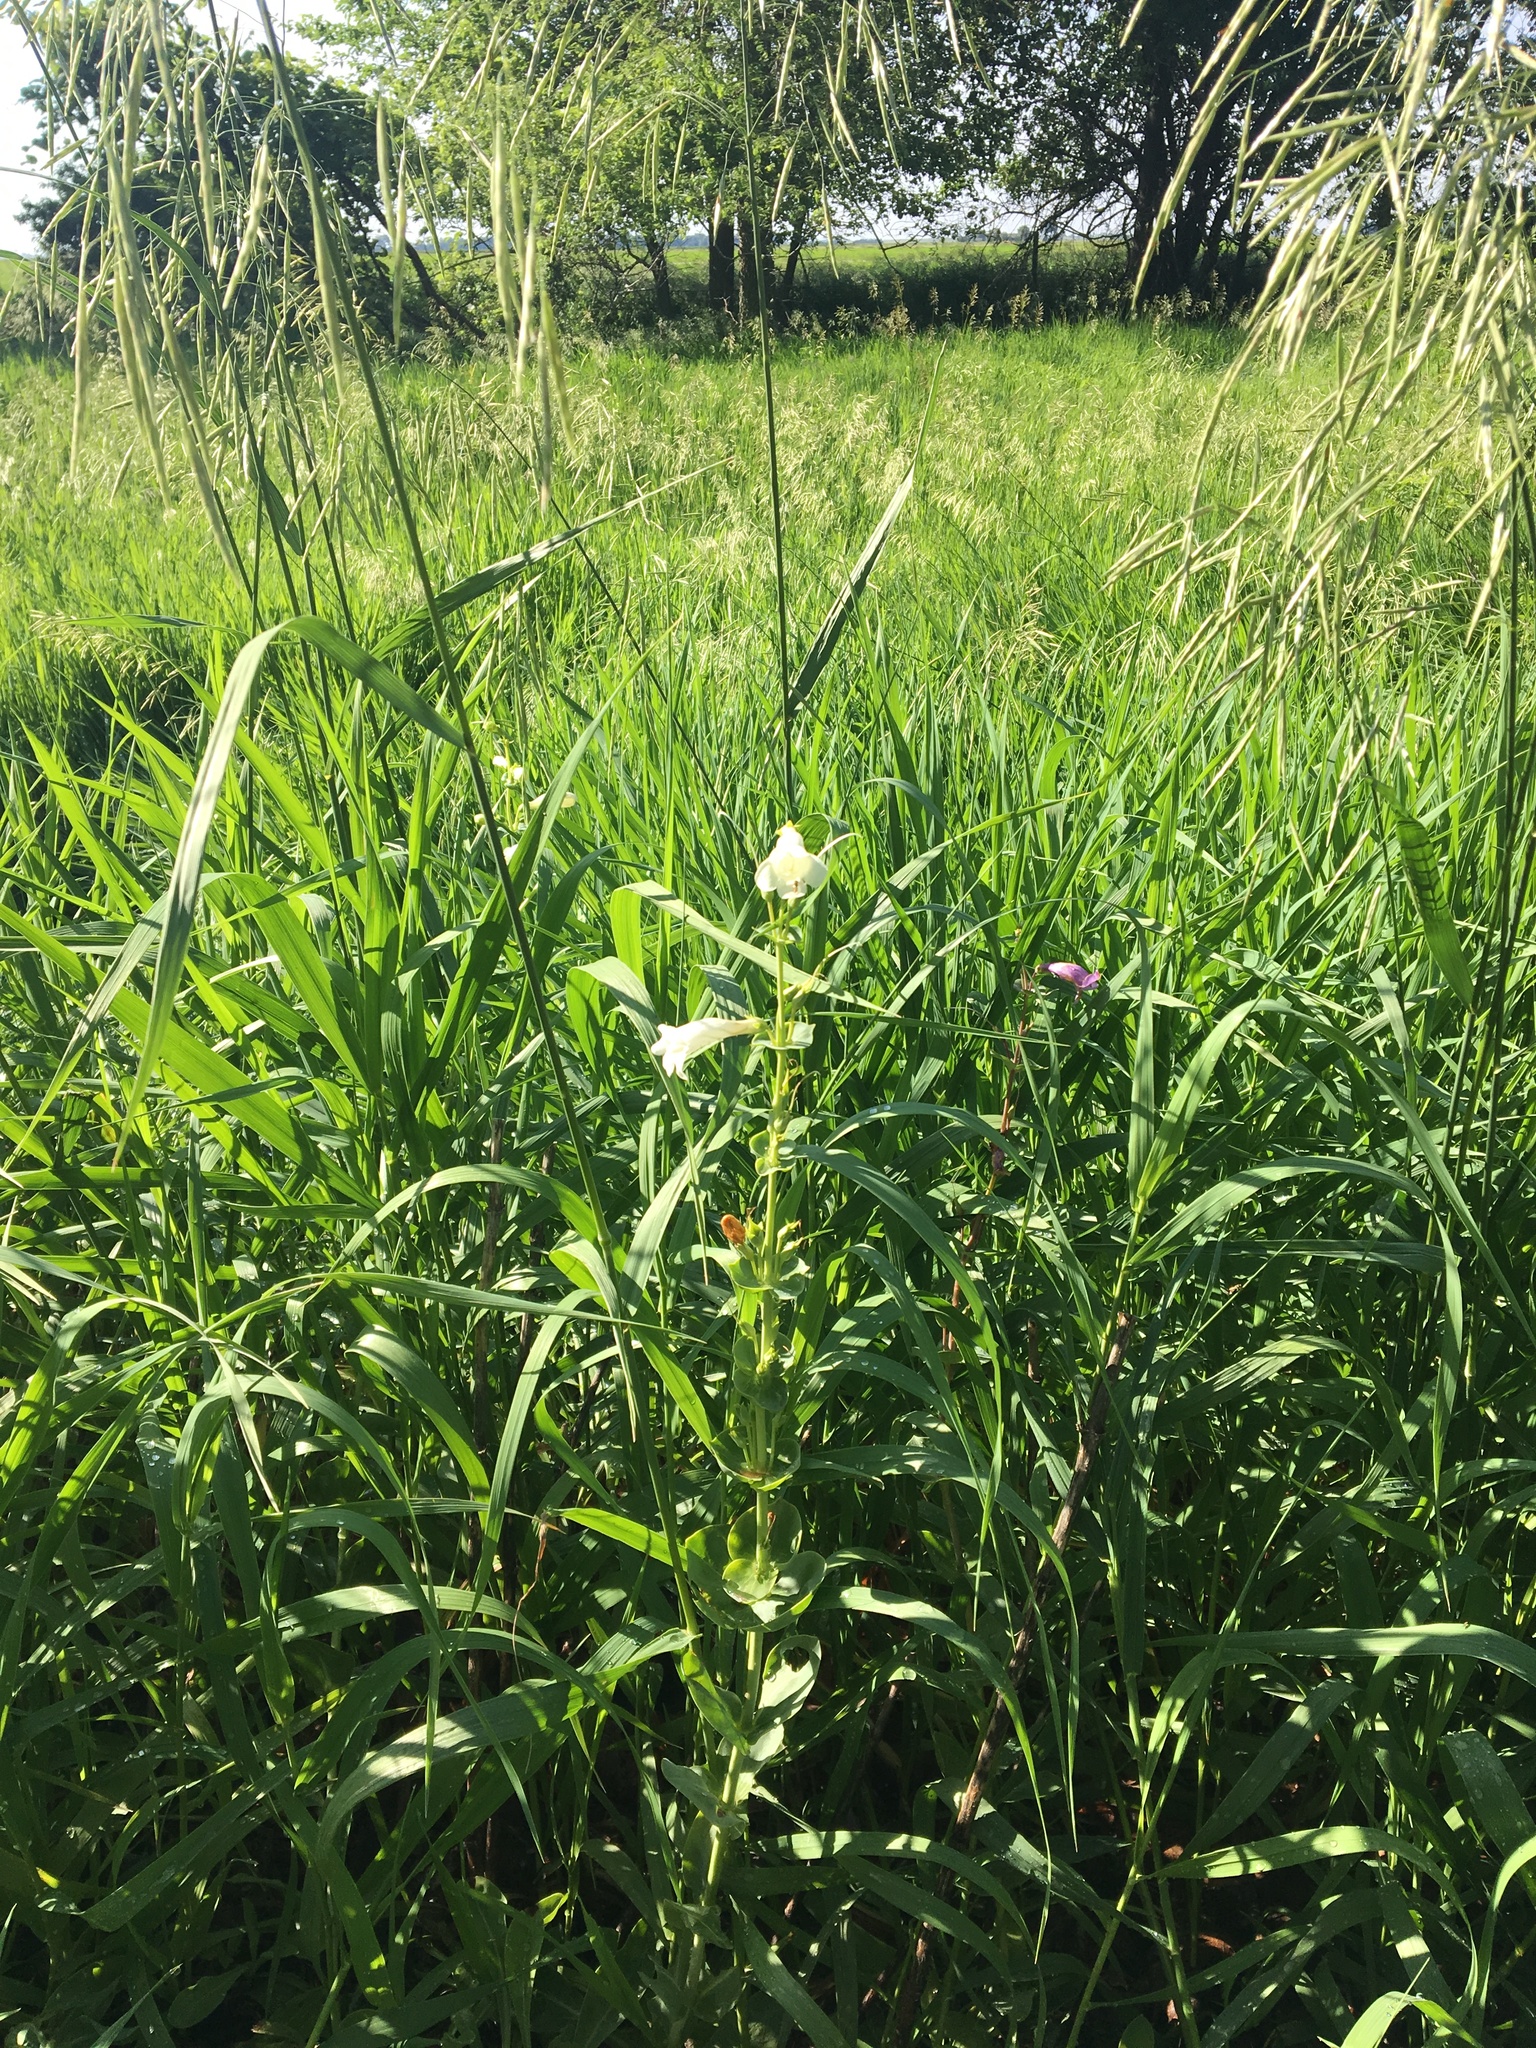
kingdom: Plantae
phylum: Tracheophyta
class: Magnoliopsida
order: Lamiales
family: Plantaginaceae
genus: Penstemon
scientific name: Penstemon albidus
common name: White beardtongue
